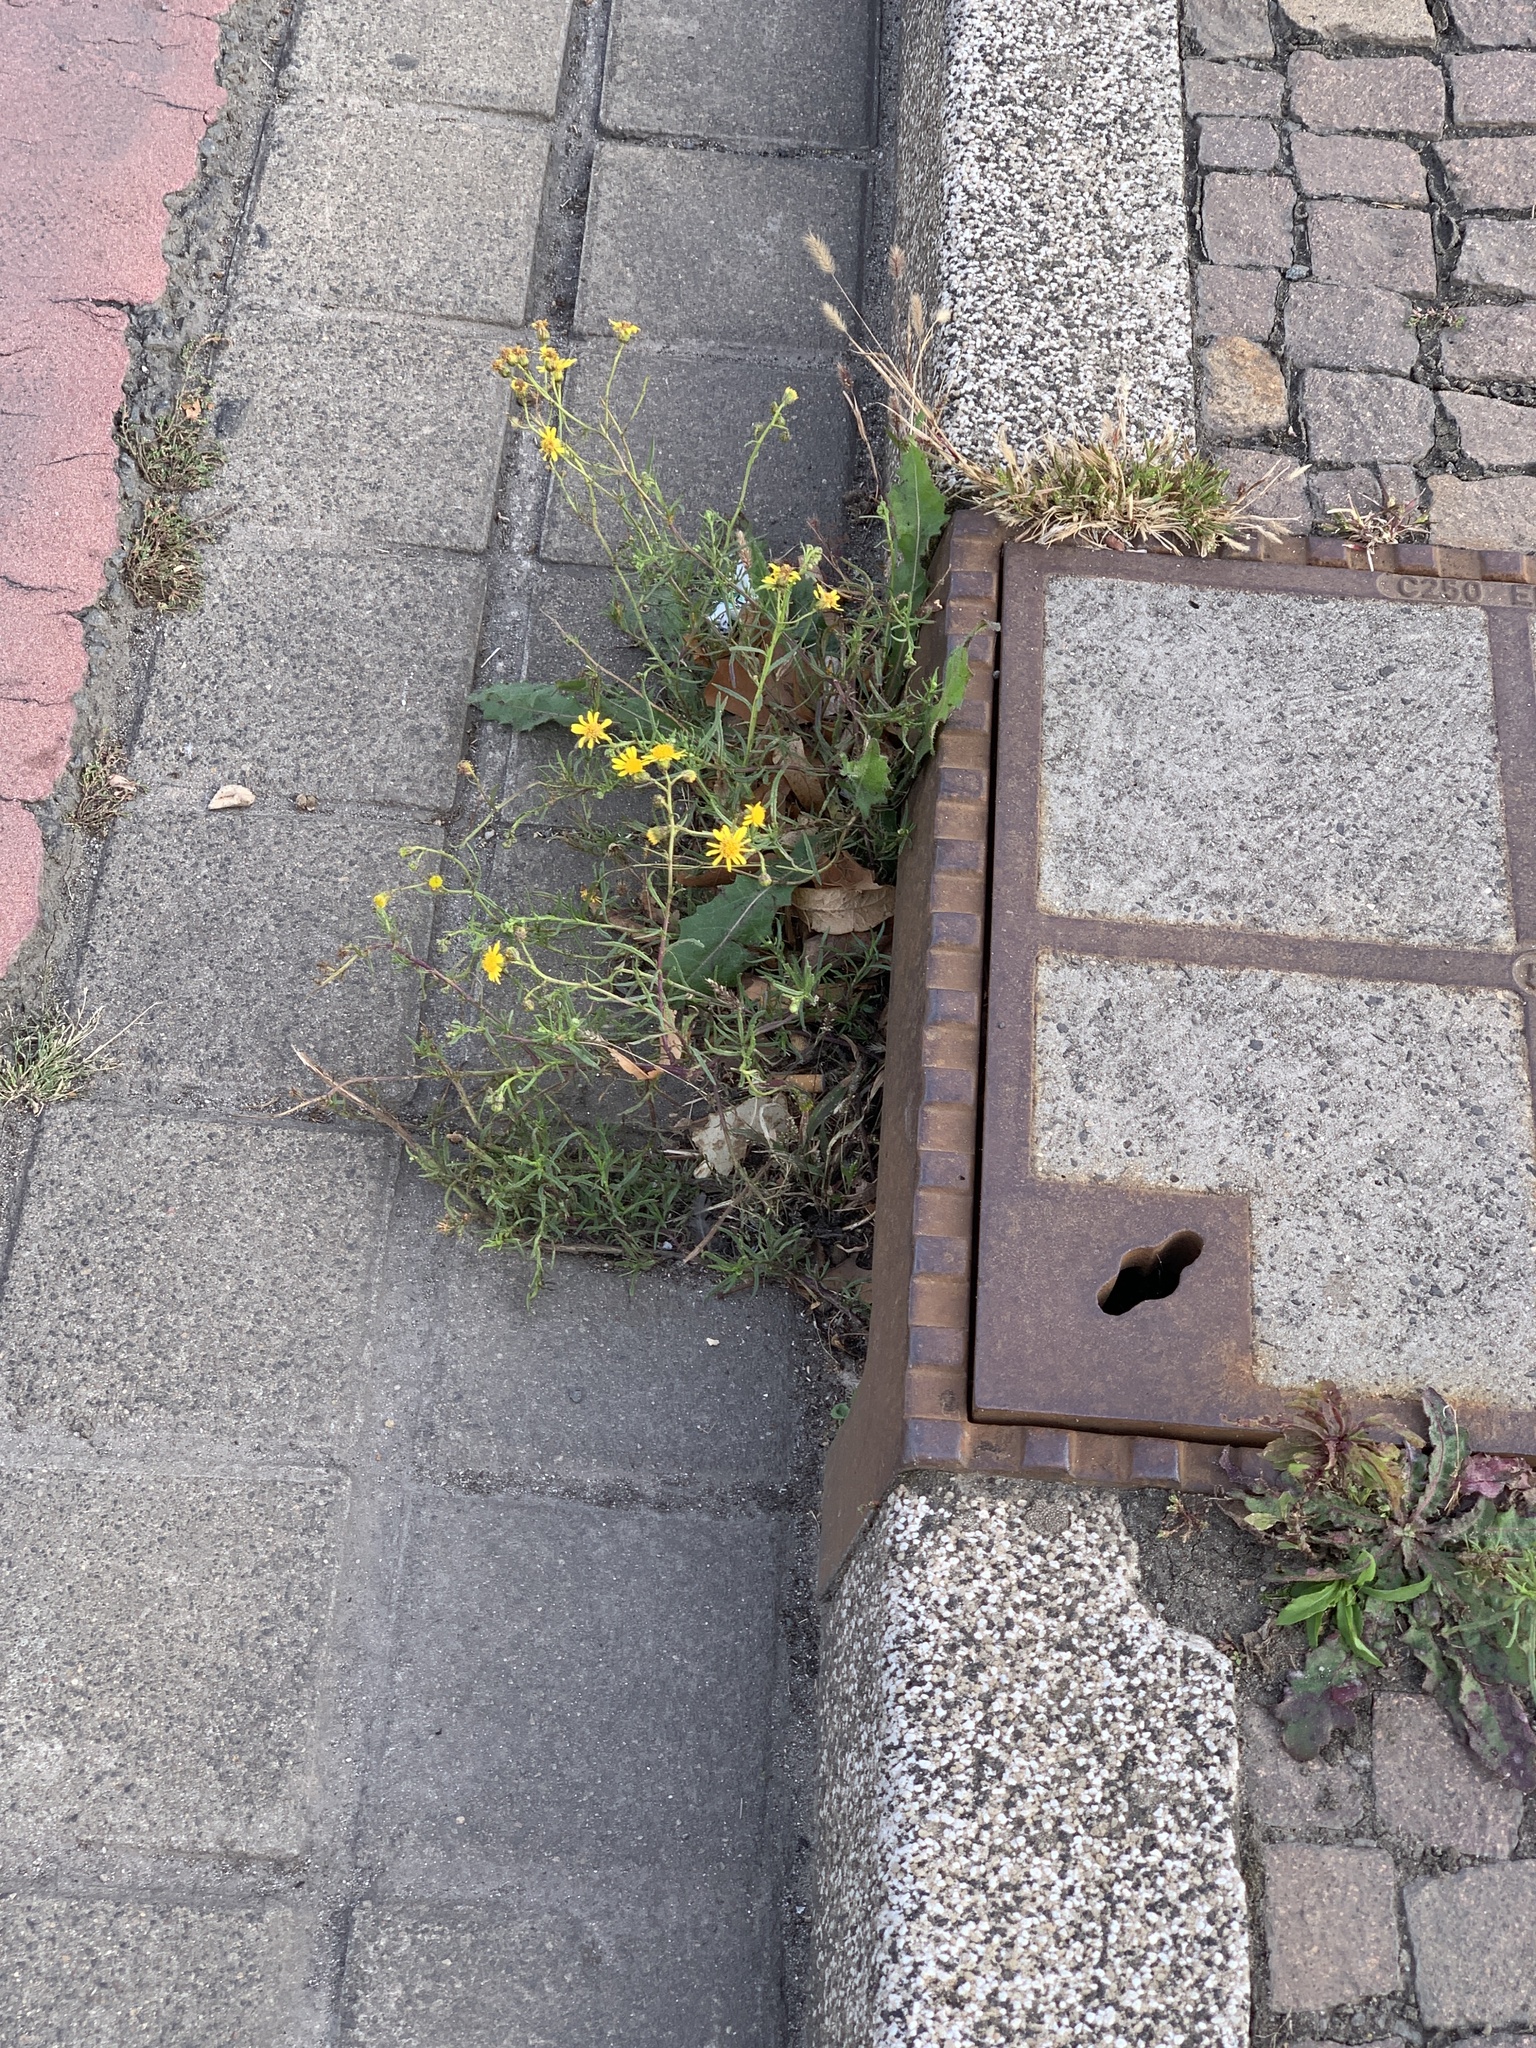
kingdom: Plantae
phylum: Tracheophyta
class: Magnoliopsida
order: Asterales
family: Asteraceae
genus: Senecio
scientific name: Senecio inaequidens
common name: Narrow-leaved ragwort
